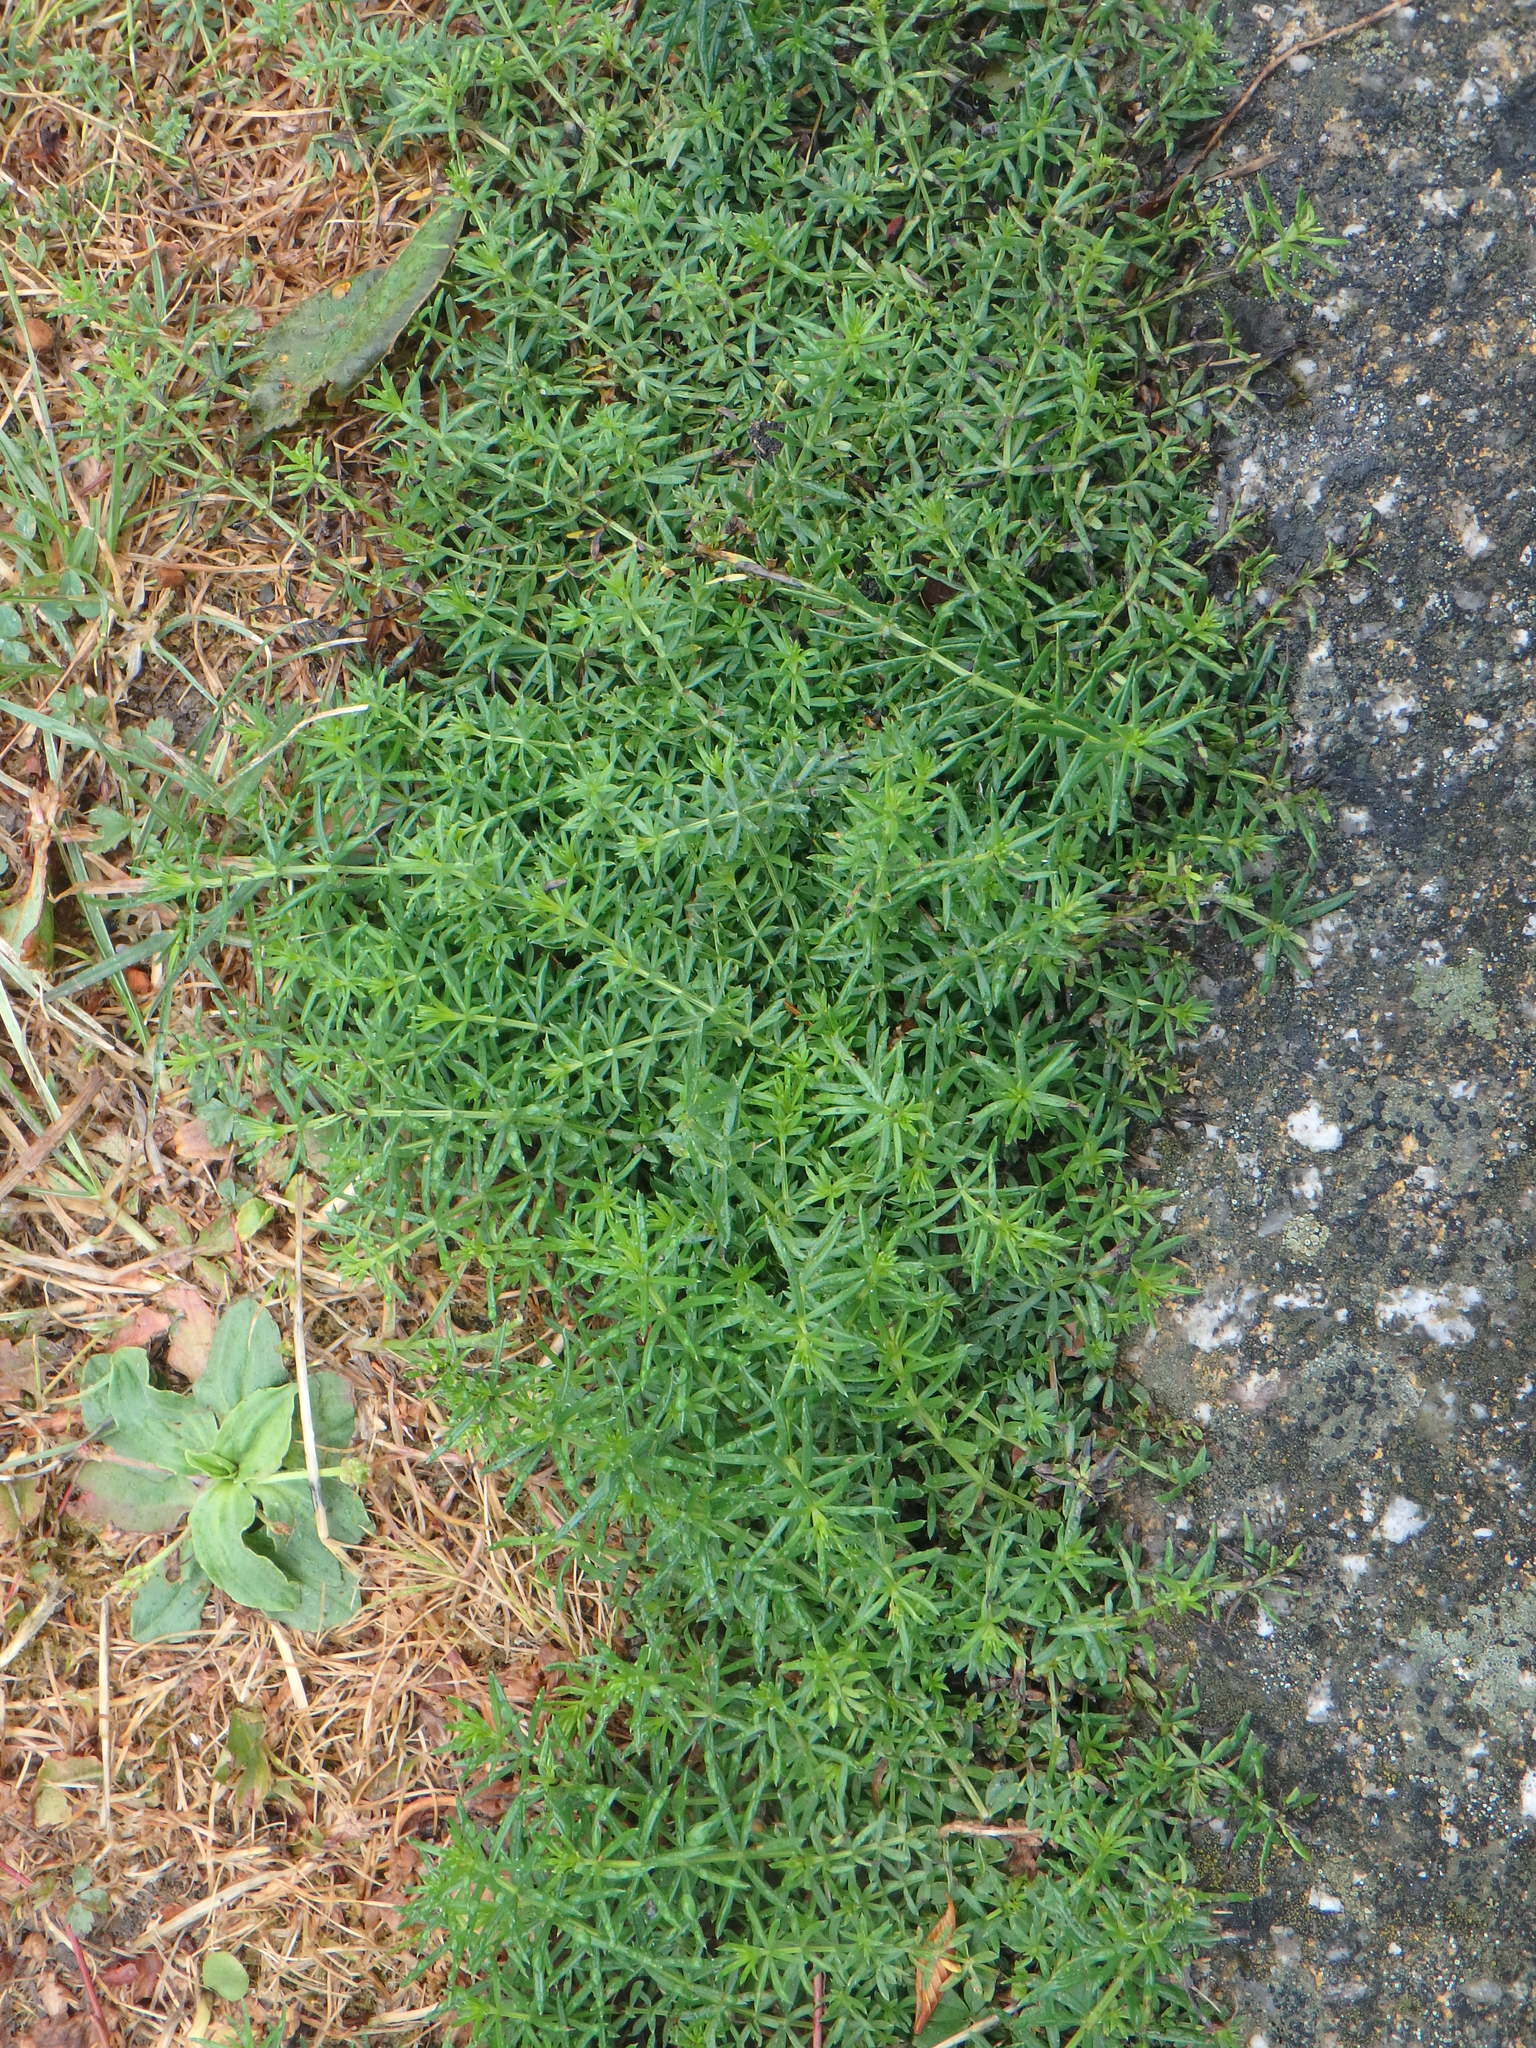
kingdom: Plantae
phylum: Tracheophyta
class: Magnoliopsida
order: Gentianales
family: Rubiaceae
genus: Galium
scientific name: Galium verum
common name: Lady's bedstraw
